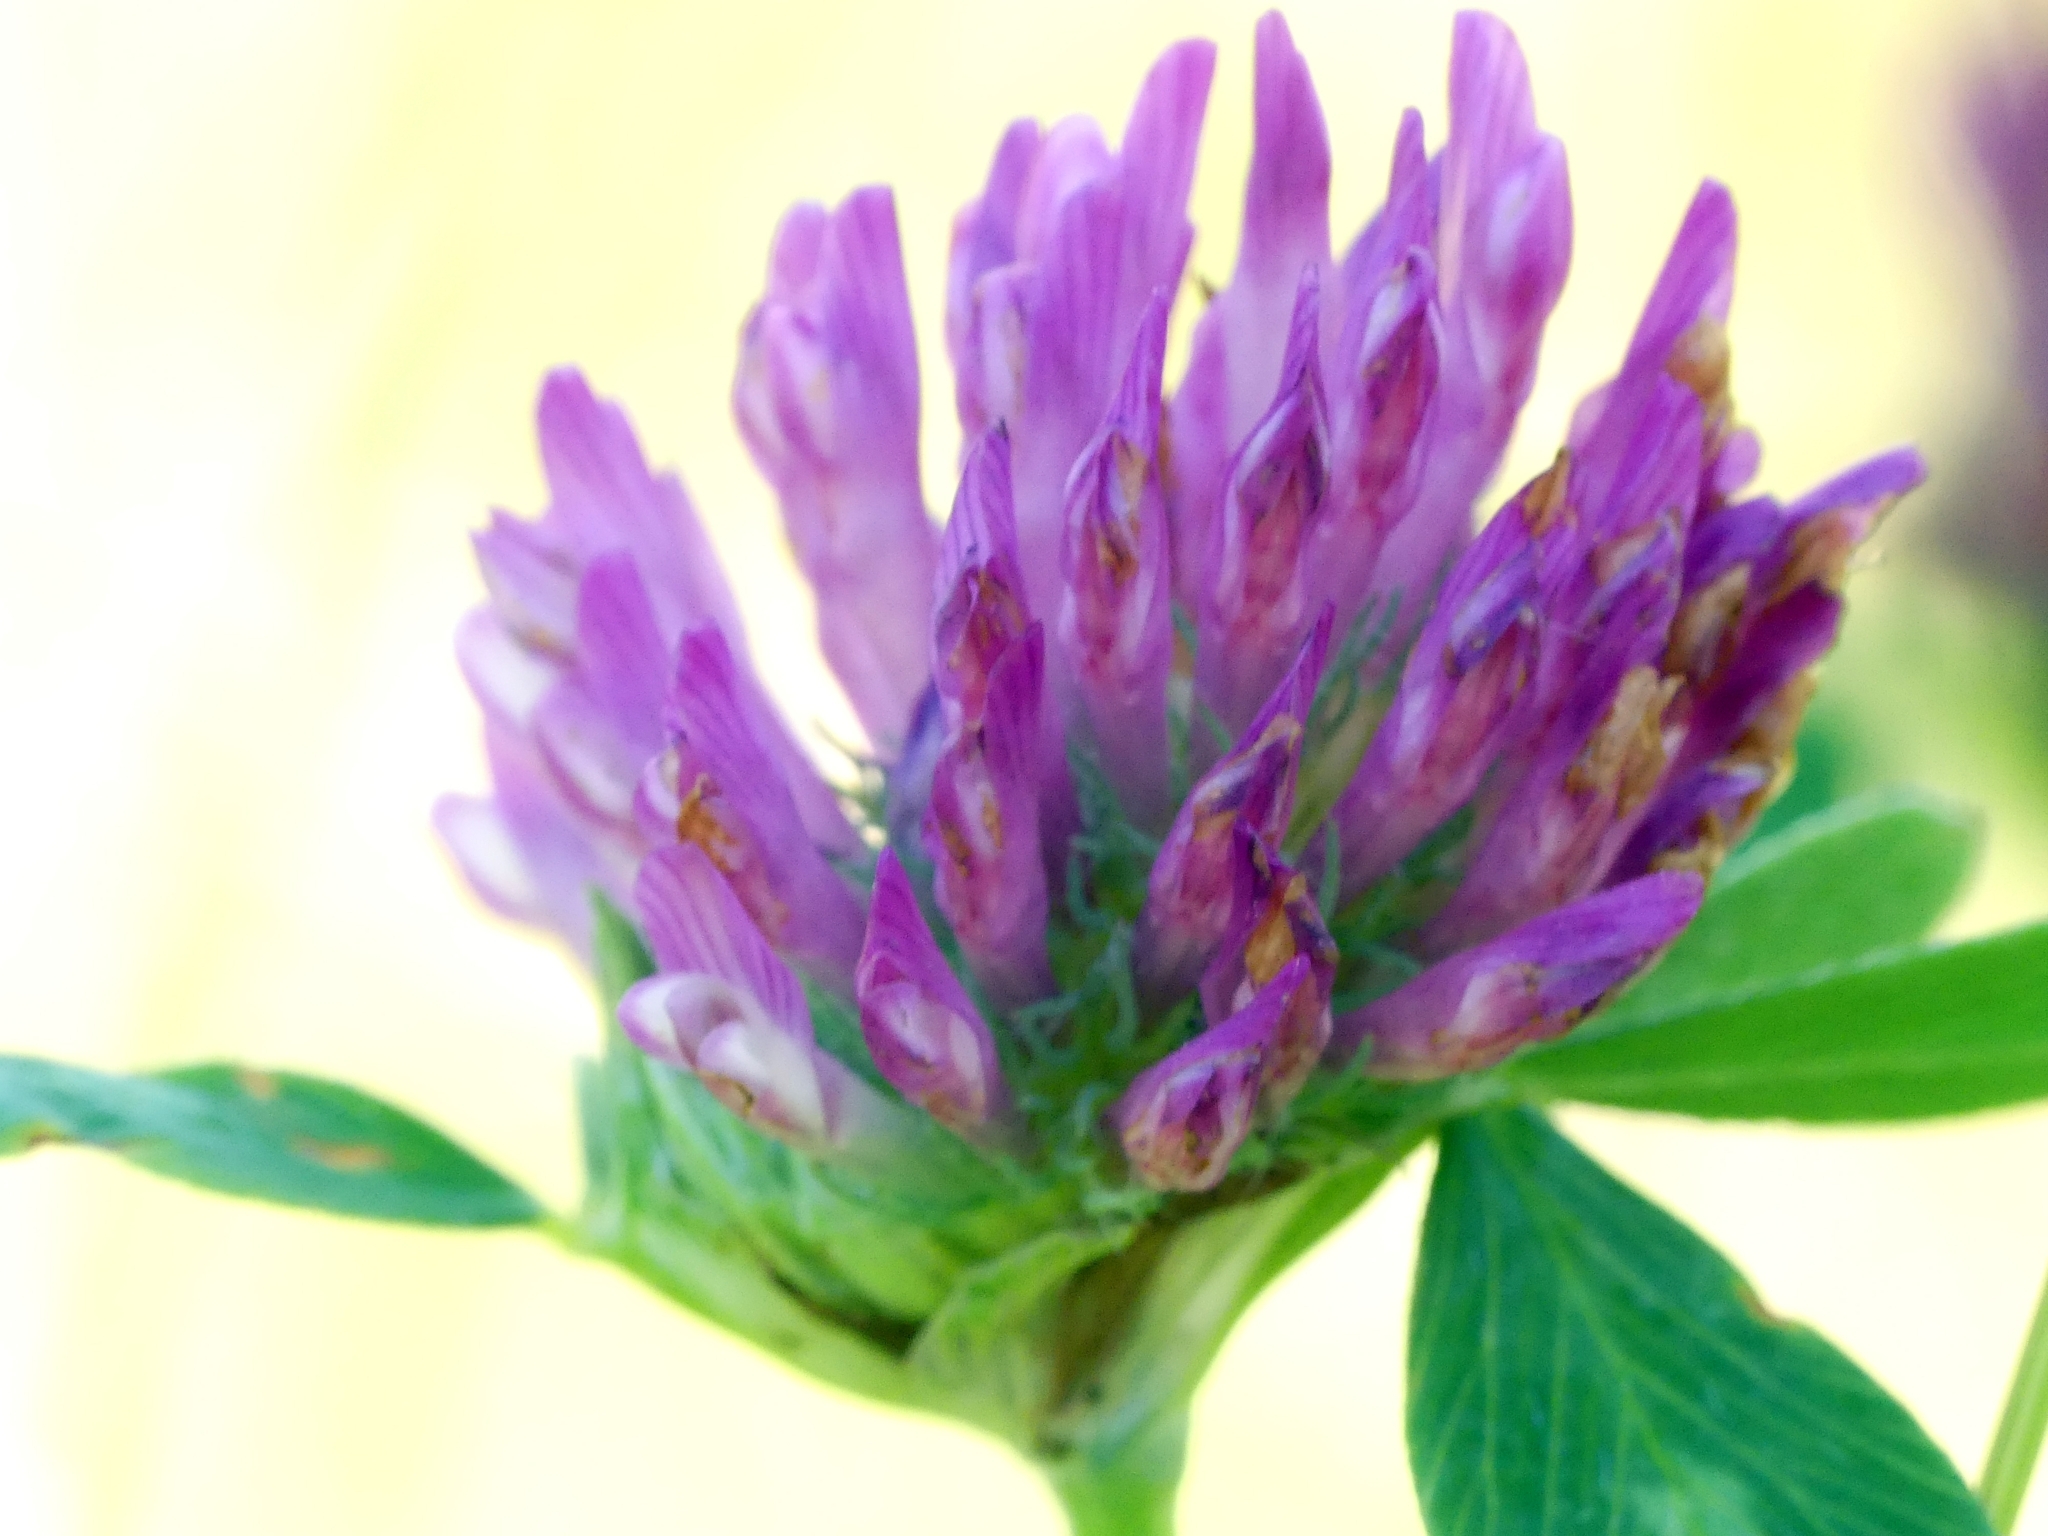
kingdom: Plantae
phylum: Tracheophyta
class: Magnoliopsida
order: Fabales
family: Fabaceae
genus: Trifolium
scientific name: Trifolium pratense
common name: Red clover
